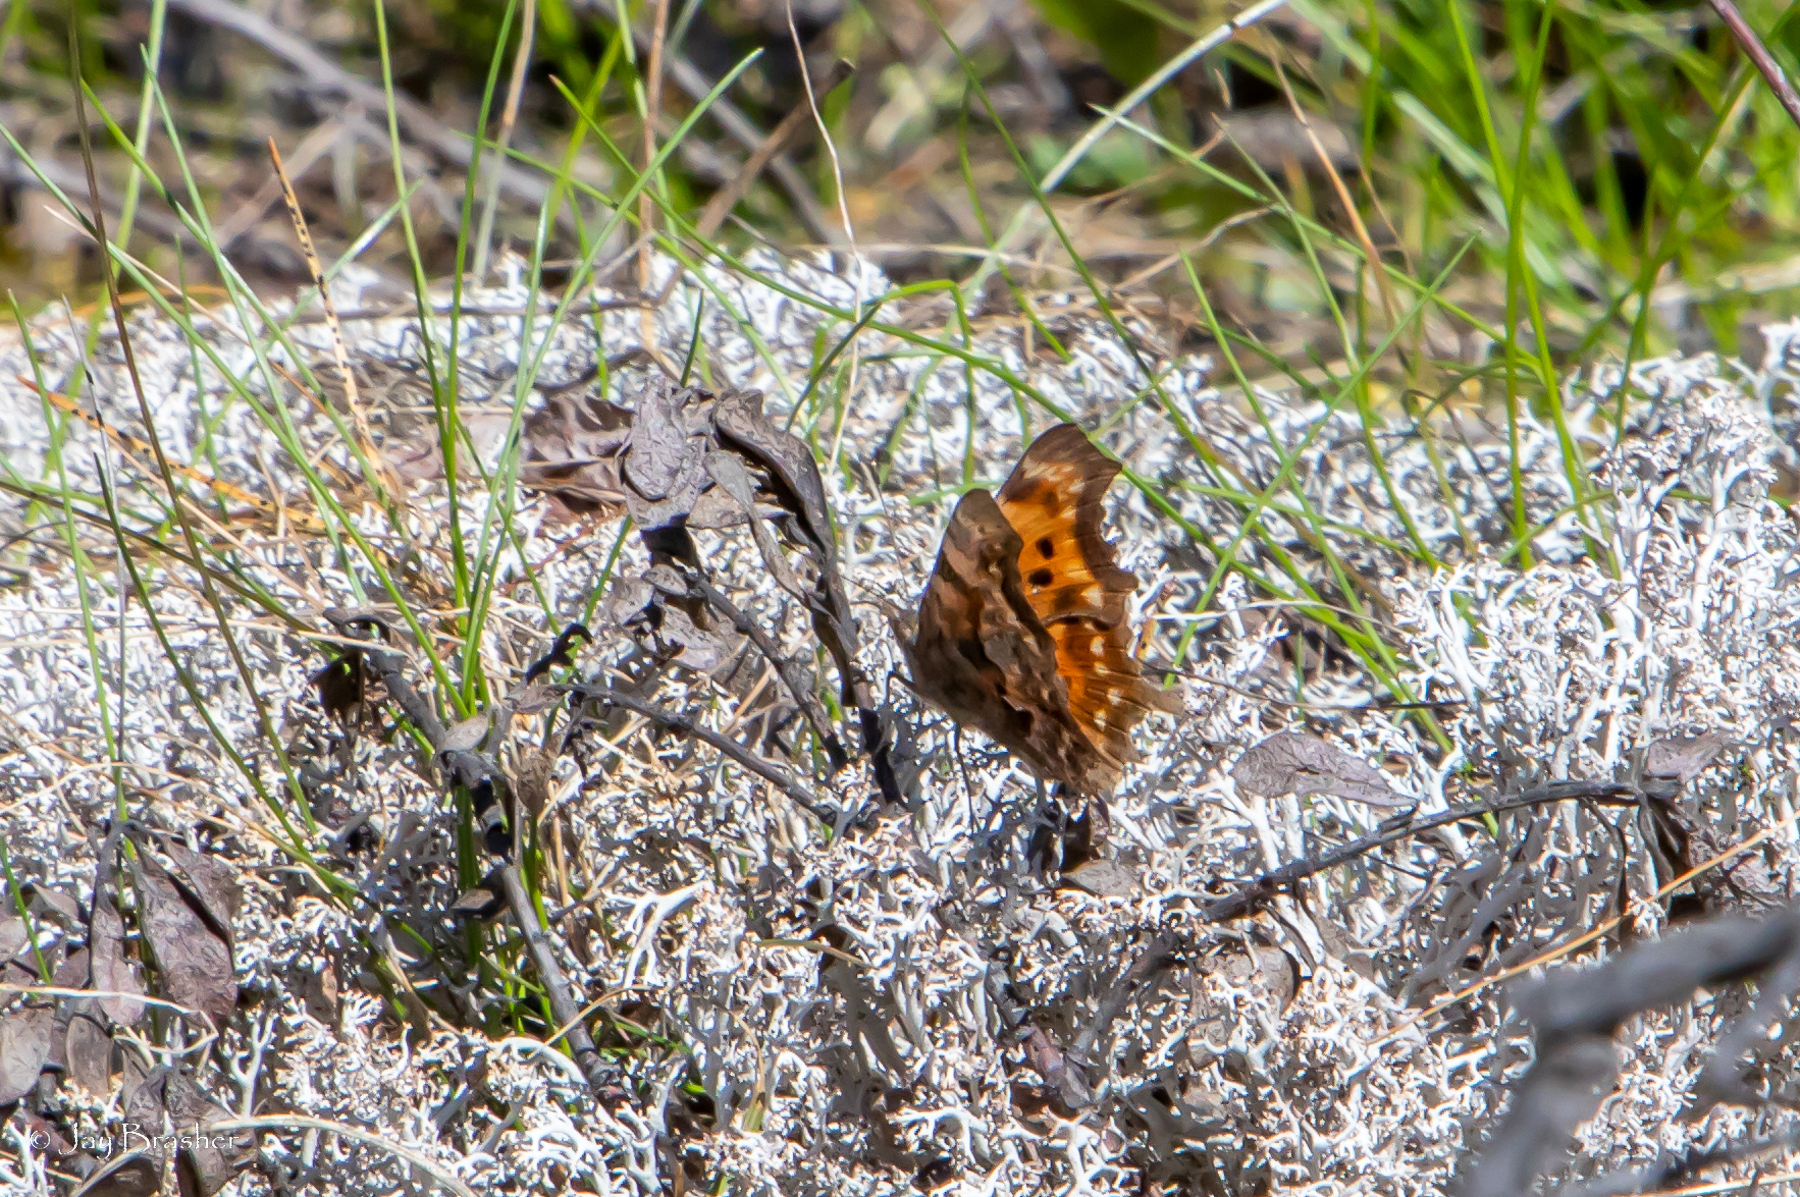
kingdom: Animalia
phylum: Arthropoda
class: Insecta
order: Lepidoptera
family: Nymphalidae
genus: Polygonia
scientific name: Polygonia faunus
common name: Green comma
